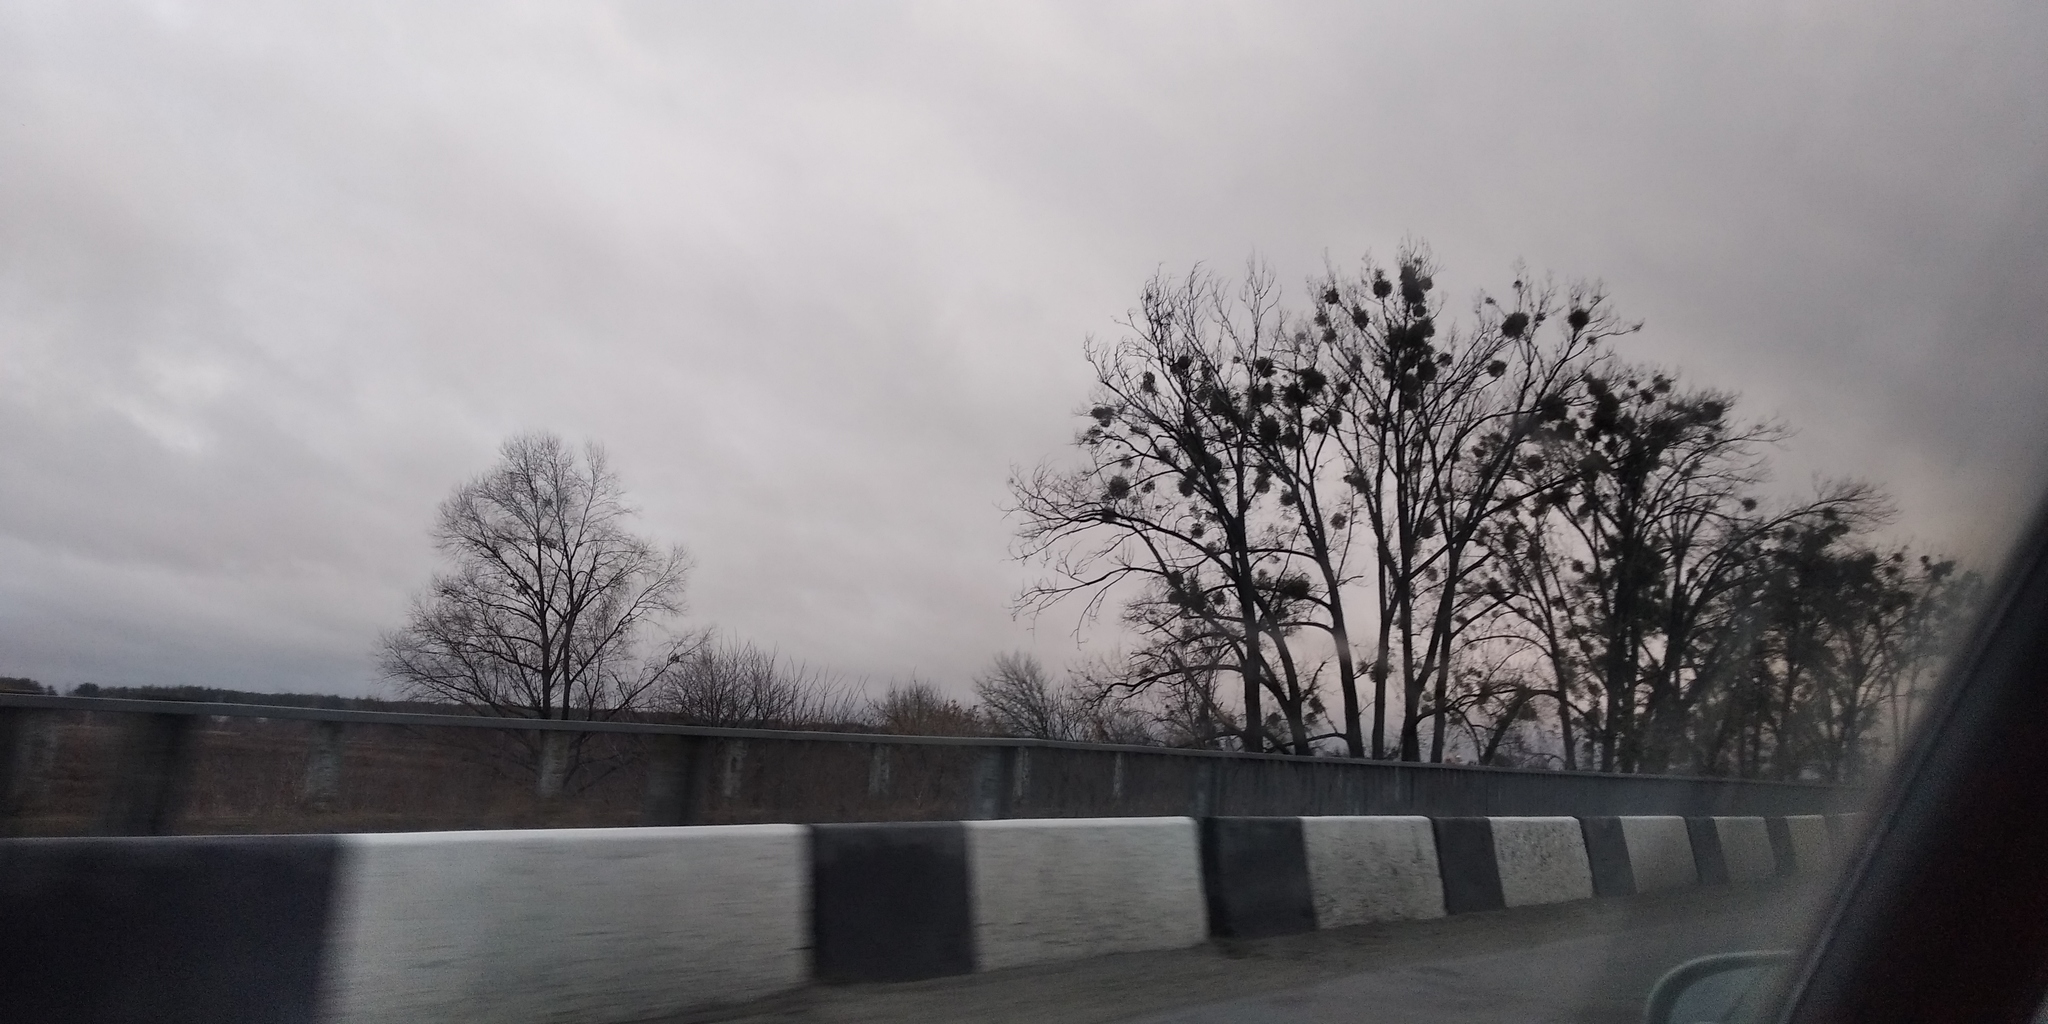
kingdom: Plantae
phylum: Tracheophyta
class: Magnoliopsida
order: Santalales
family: Viscaceae
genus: Viscum
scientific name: Viscum album
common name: Mistletoe
